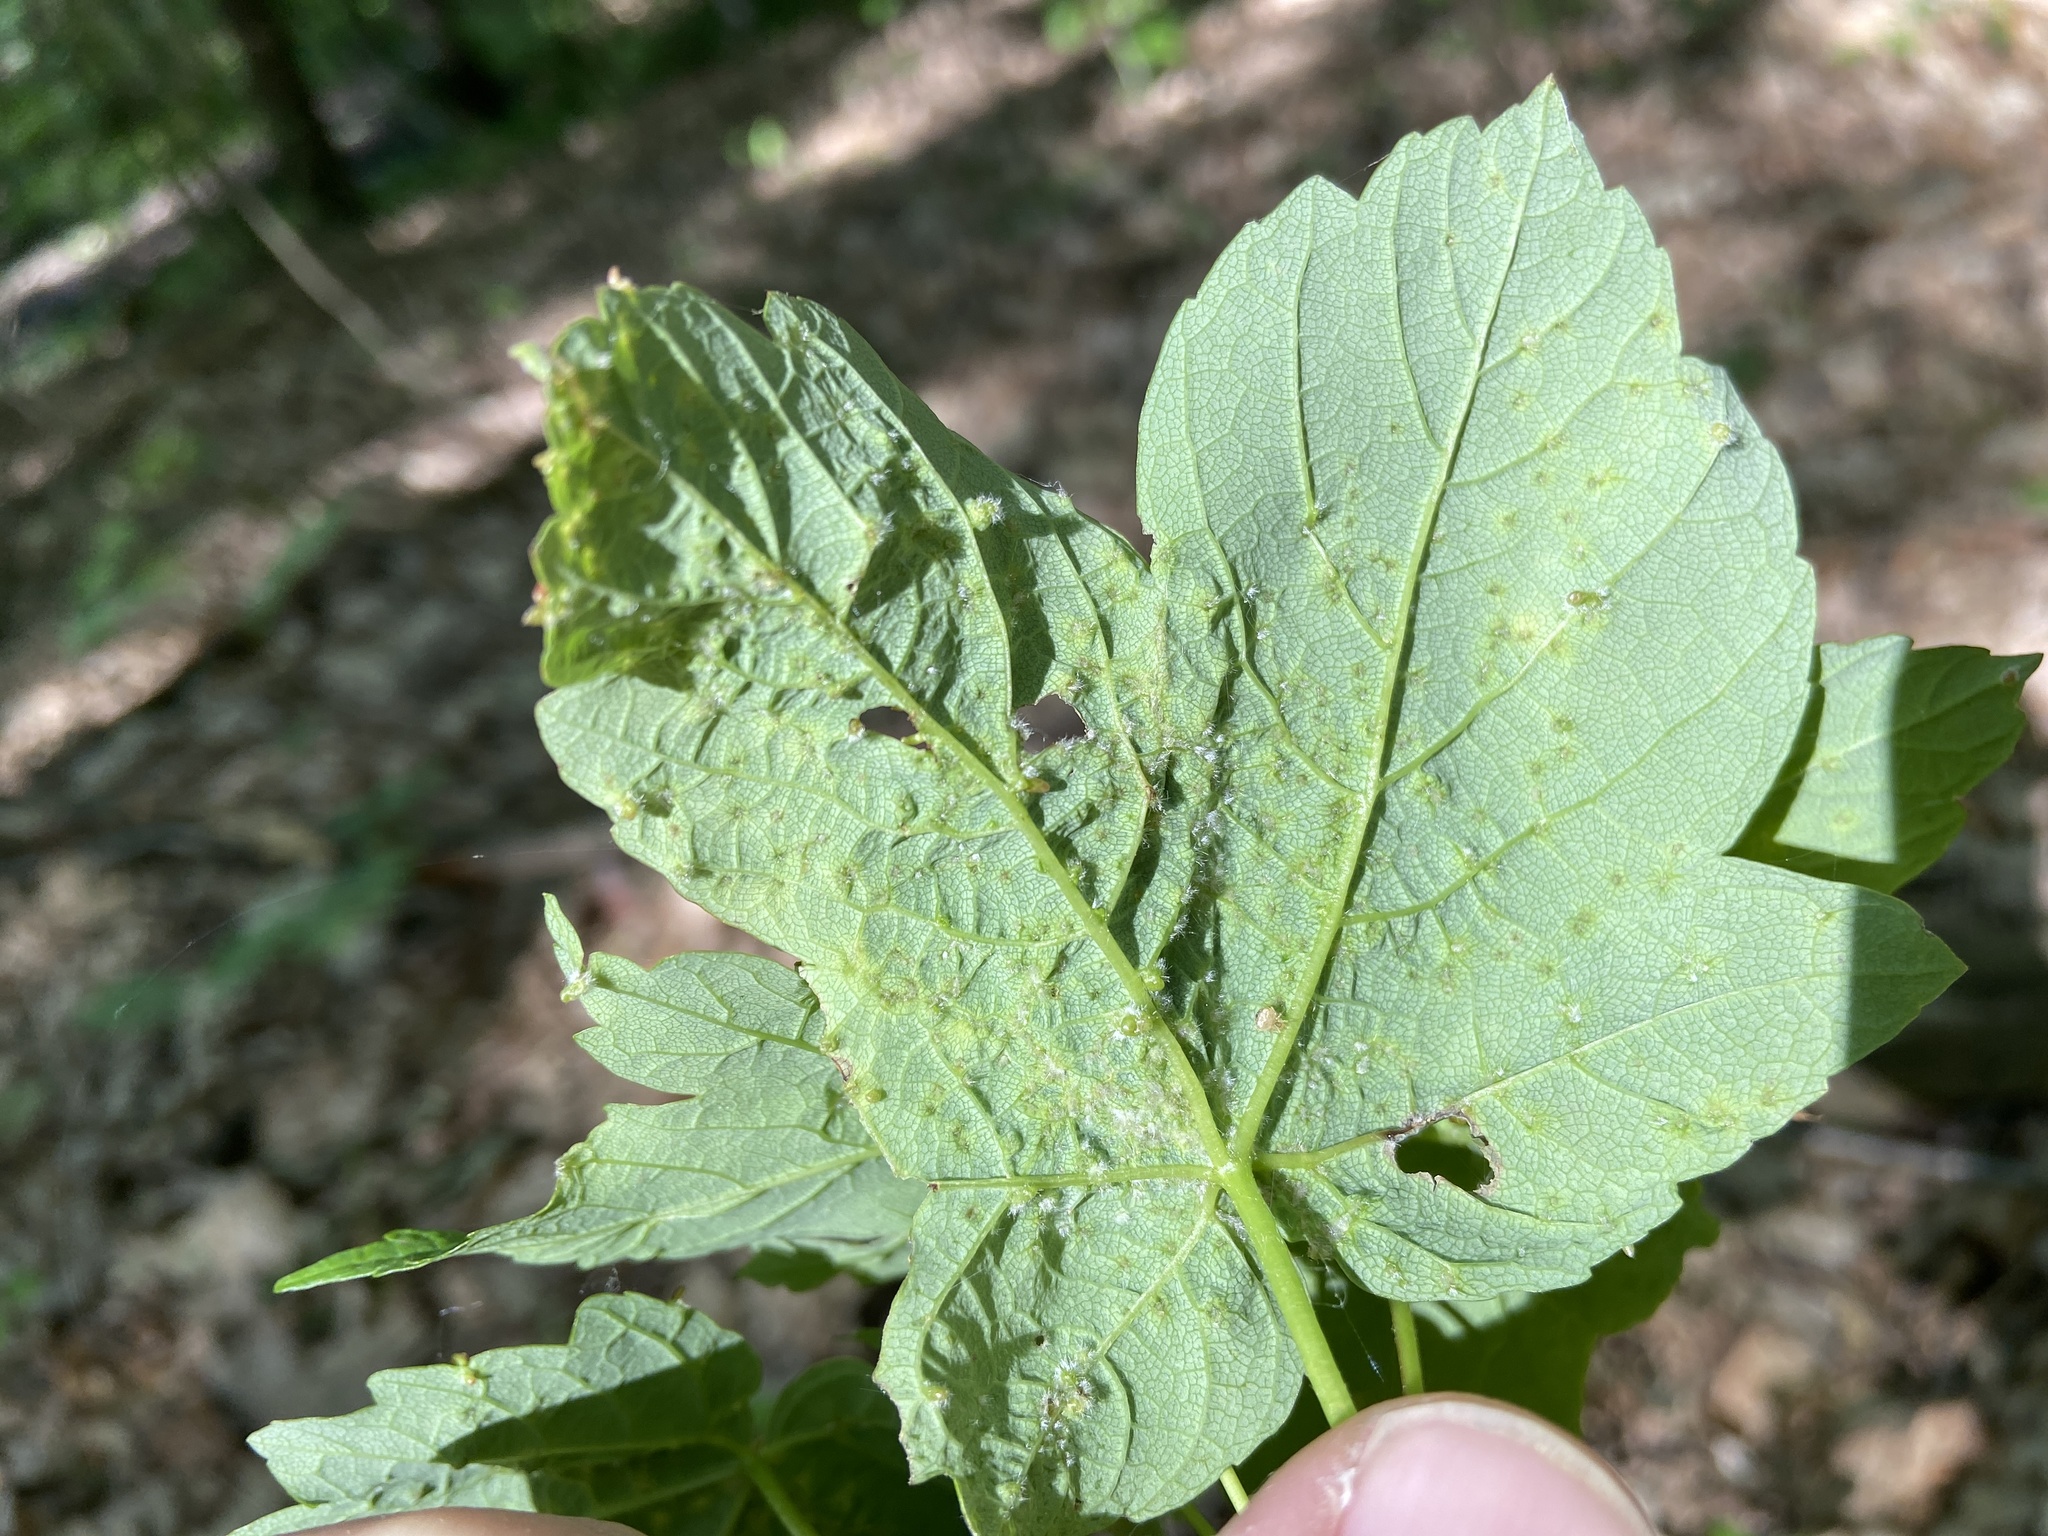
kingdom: Animalia
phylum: Arthropoda
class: Arachnida
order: Trombidiformes
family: Eriophyidae
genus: Aceria
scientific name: Aceria cephaloneus
